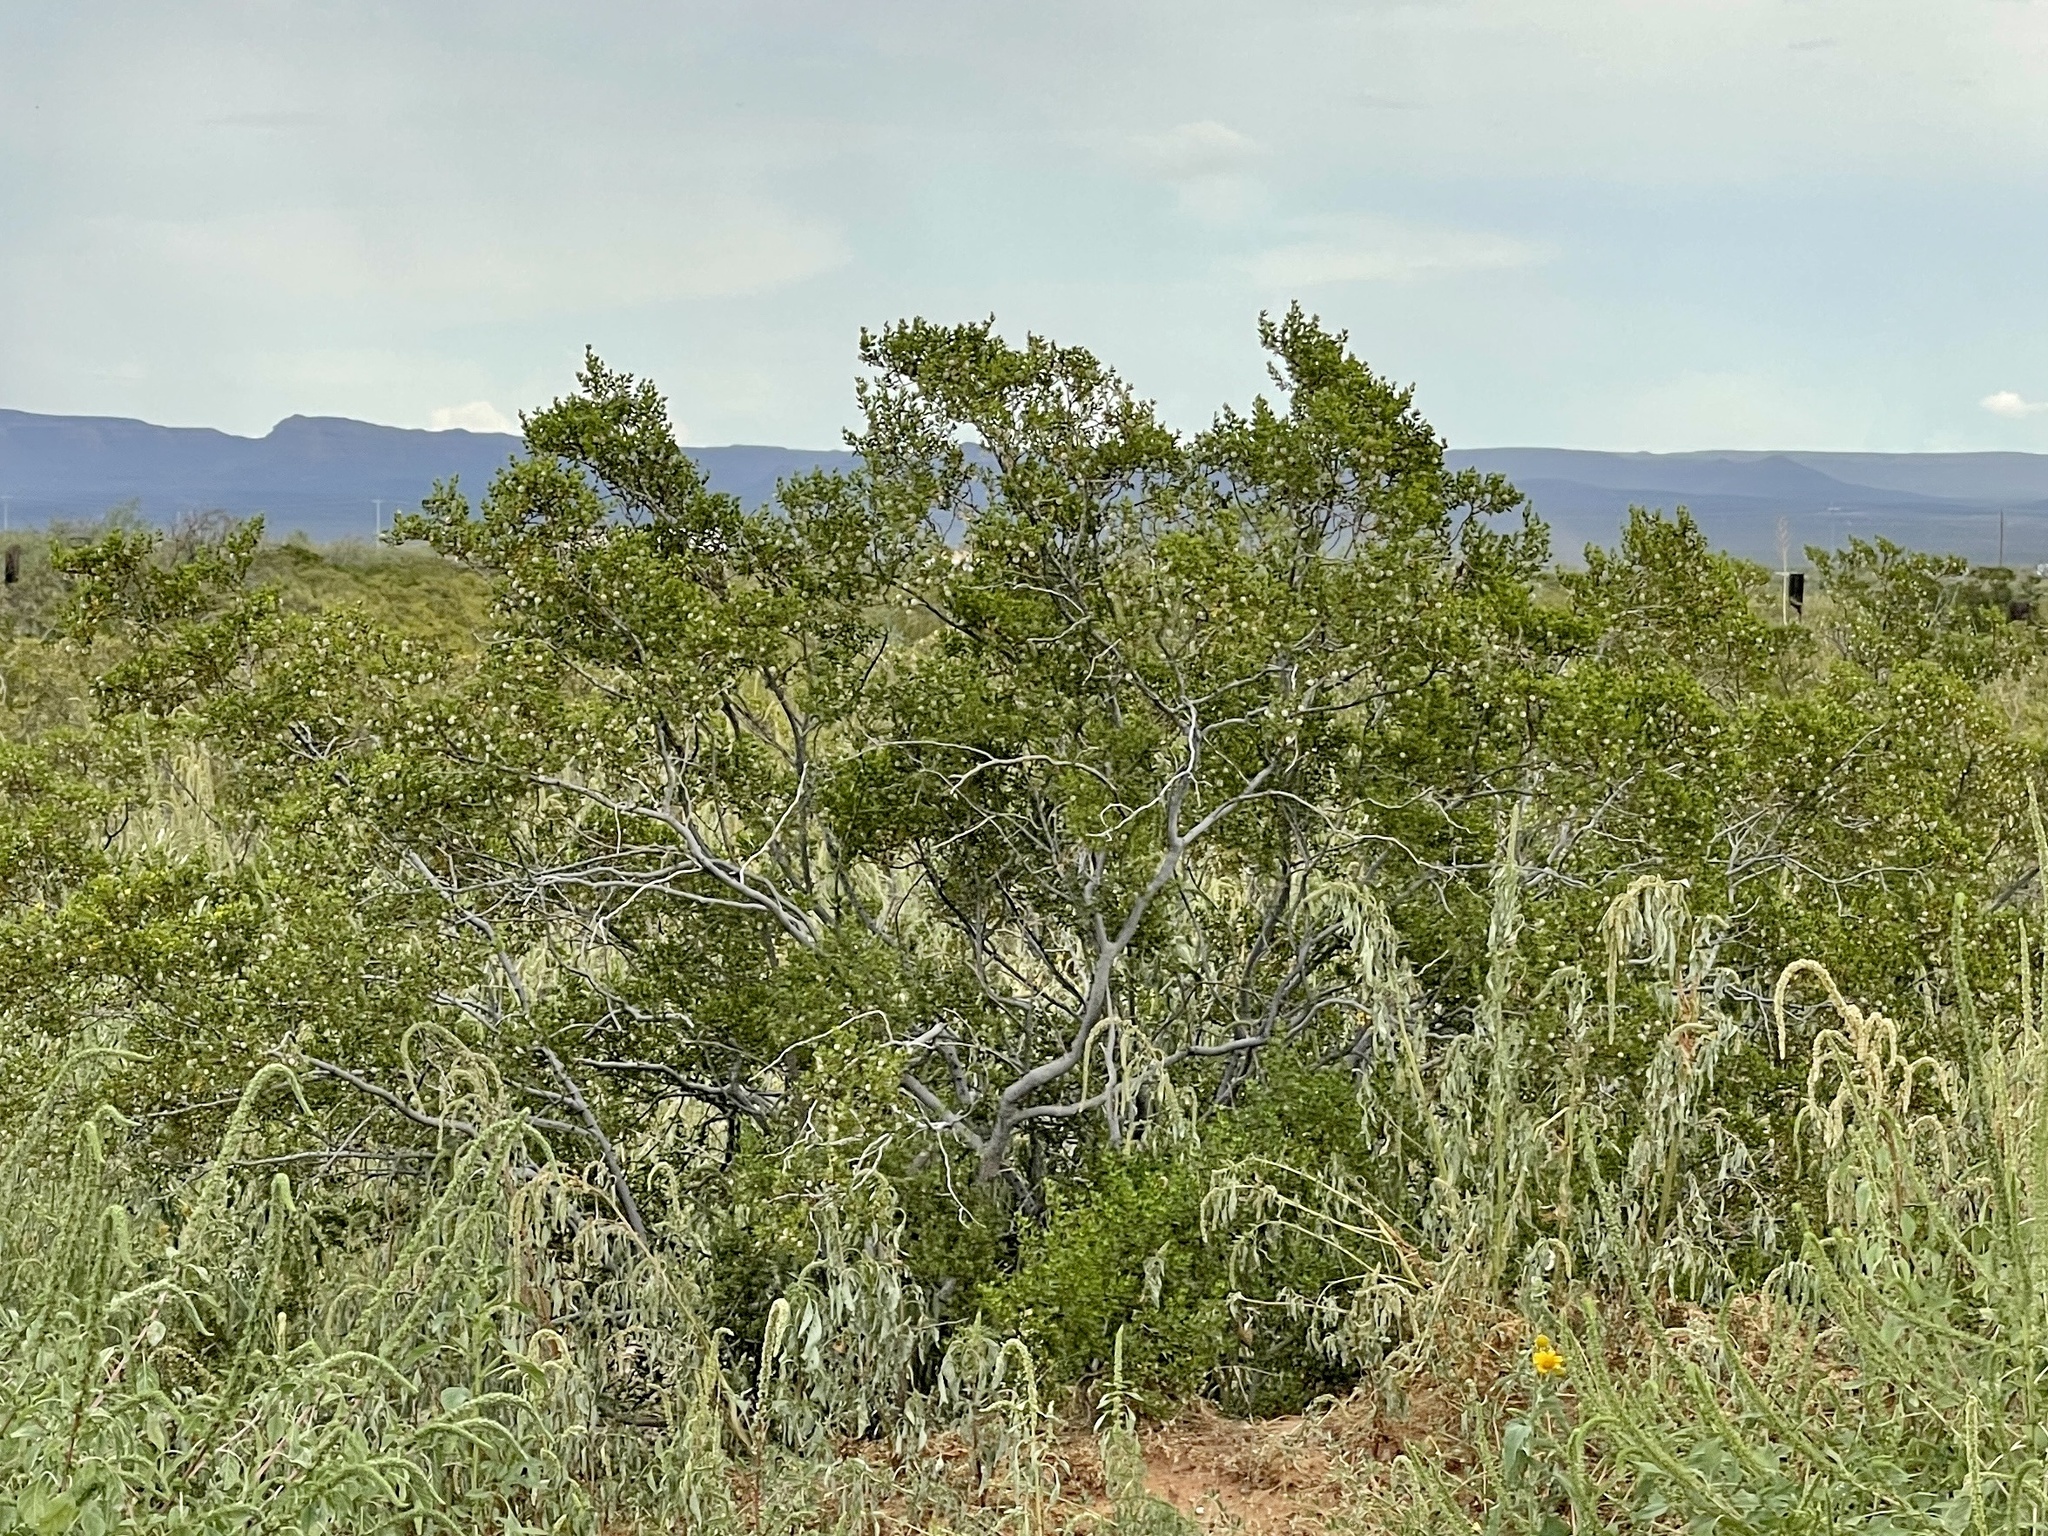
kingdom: Plantae
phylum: Tracheophyta
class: Magnoliopsida
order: Zygophyllales
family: Zygophyllaceae
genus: Larrea
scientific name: Larrea tridentata
